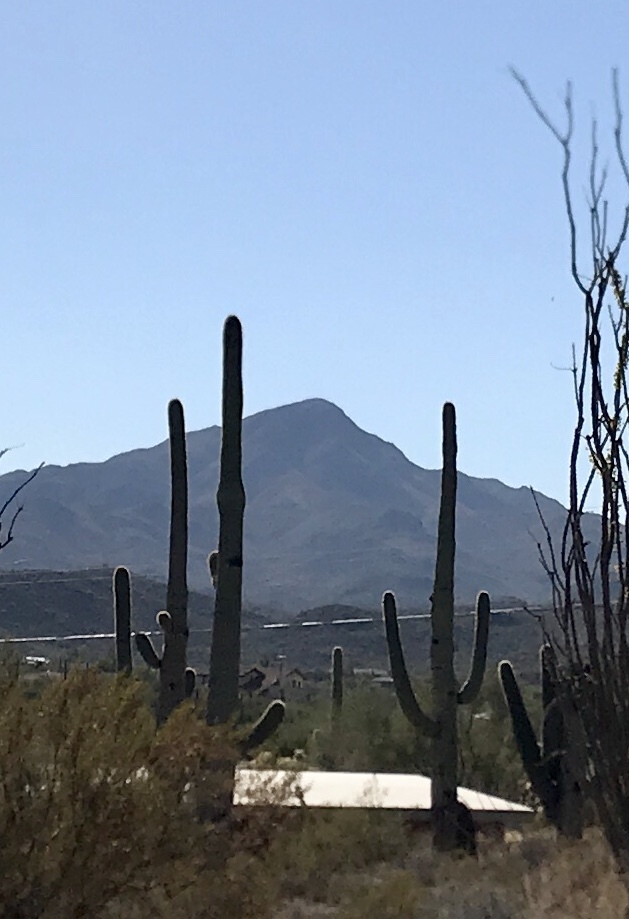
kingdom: Plantae
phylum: Tracheophyta
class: Magnoliopsida
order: Caryophyllales
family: Cactaceae
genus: Carnegiea
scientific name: Carnegiea gigantea
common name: Saguaro
